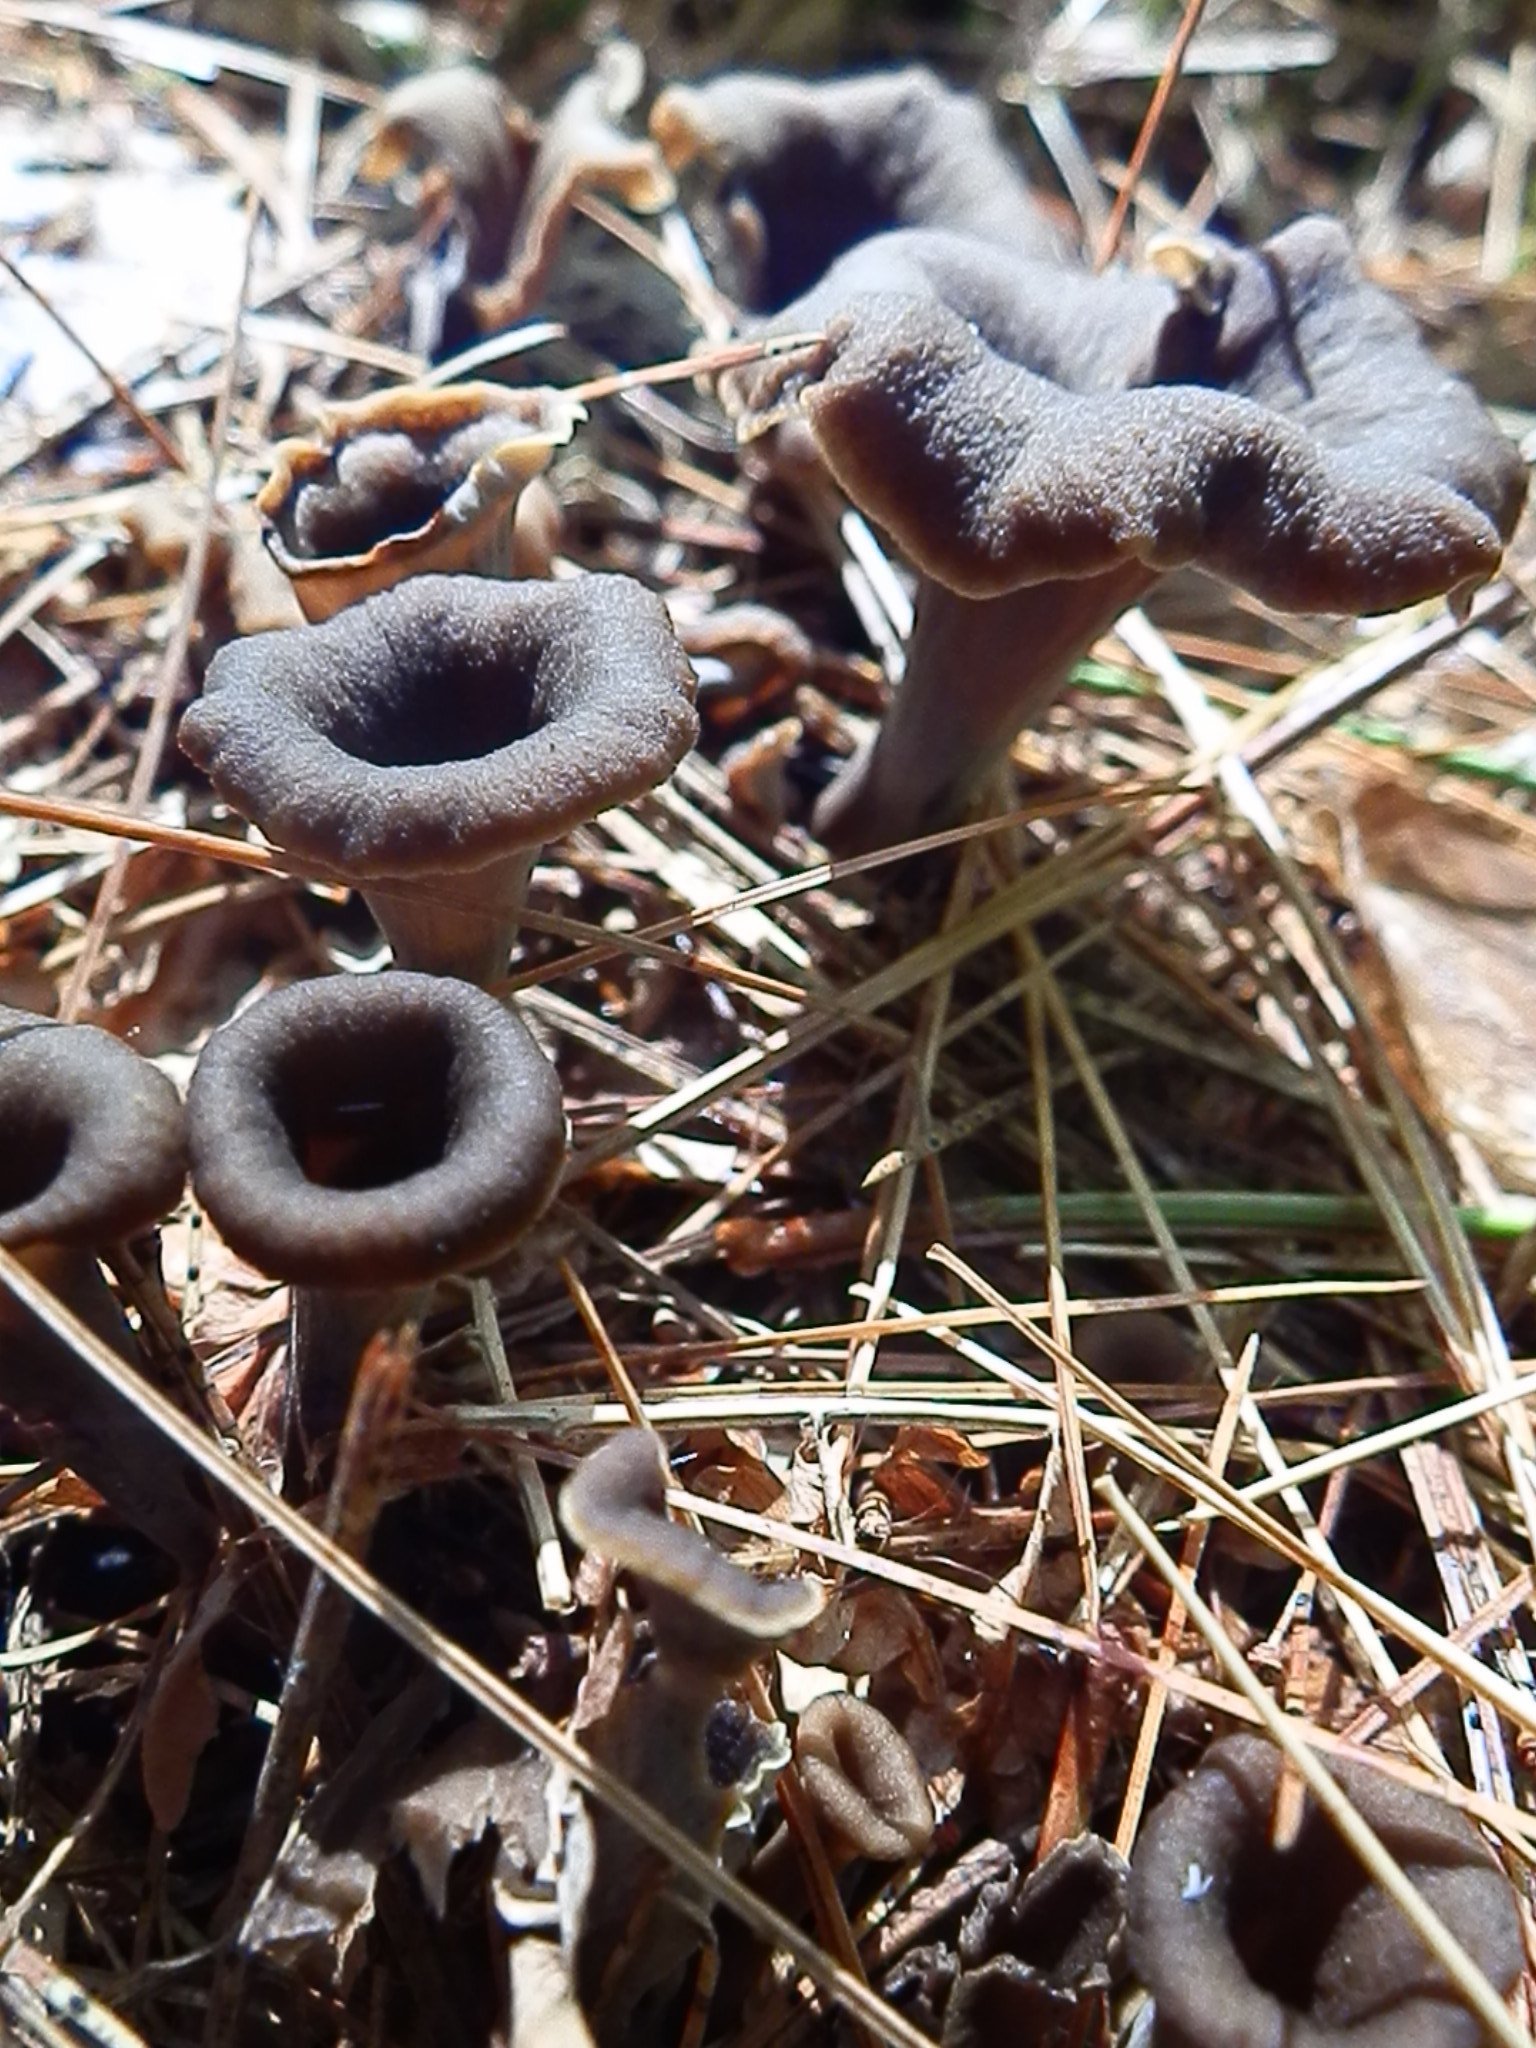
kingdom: Fungi
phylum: Basidiomycota
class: Agaricomycetes
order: Cantharellales
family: Hydnaceae
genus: Craterellus
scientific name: Craterellus caeruleofuscus
